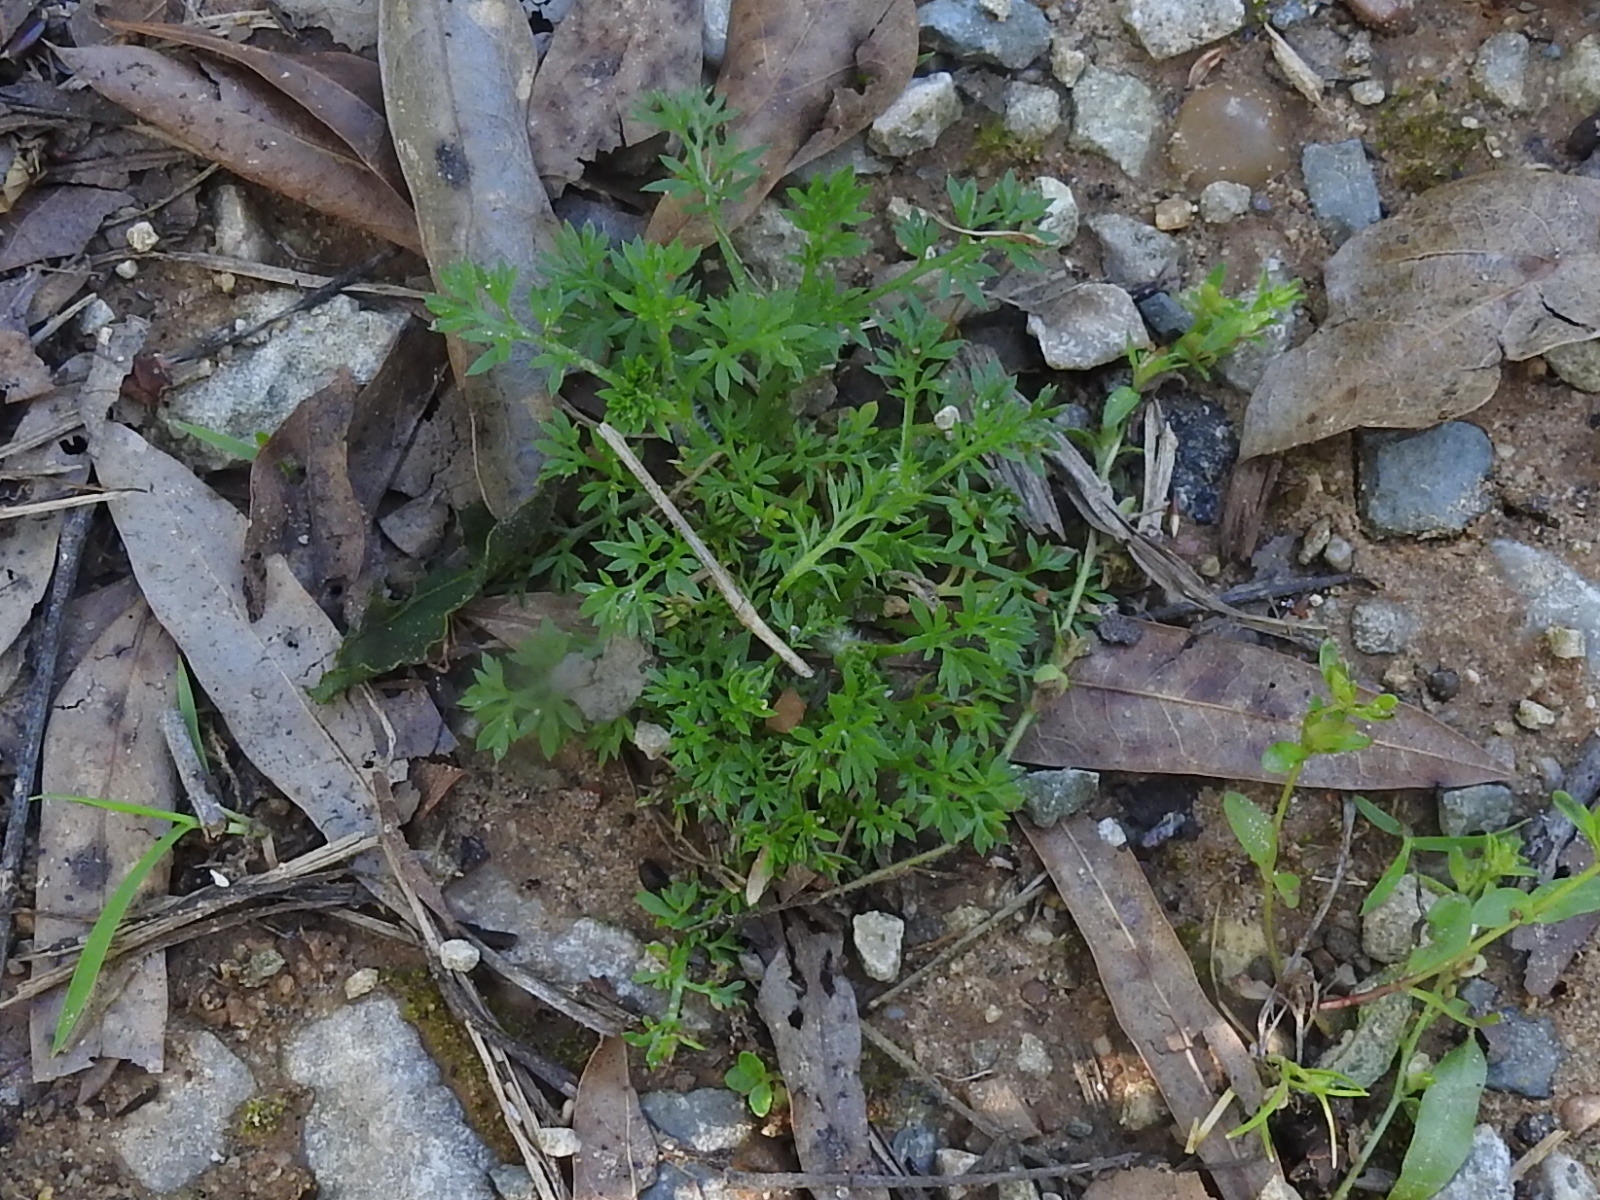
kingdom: Plantae
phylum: Tracheophyta
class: Magnoliopsida
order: Asterales
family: Asteraceae
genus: Soliva
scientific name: Soliva sessilis
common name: Field burrweed
